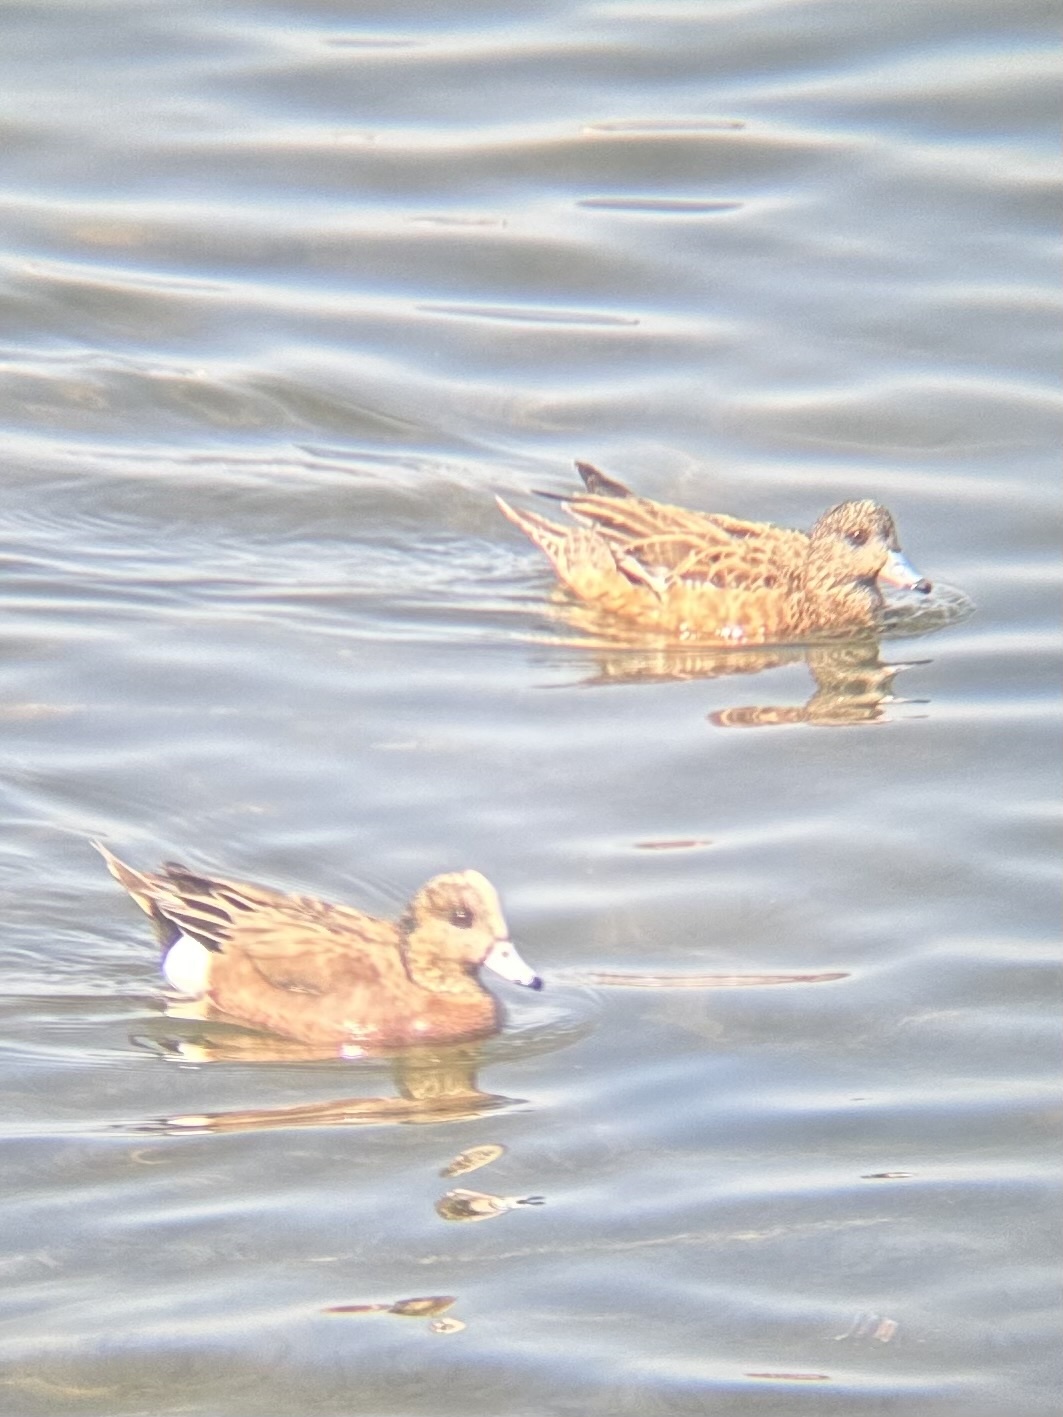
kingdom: Animalia
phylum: Chordata
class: Aves
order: Anseriformes
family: Anatidae
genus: Mareca
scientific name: Mareca americana
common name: American wigeon
